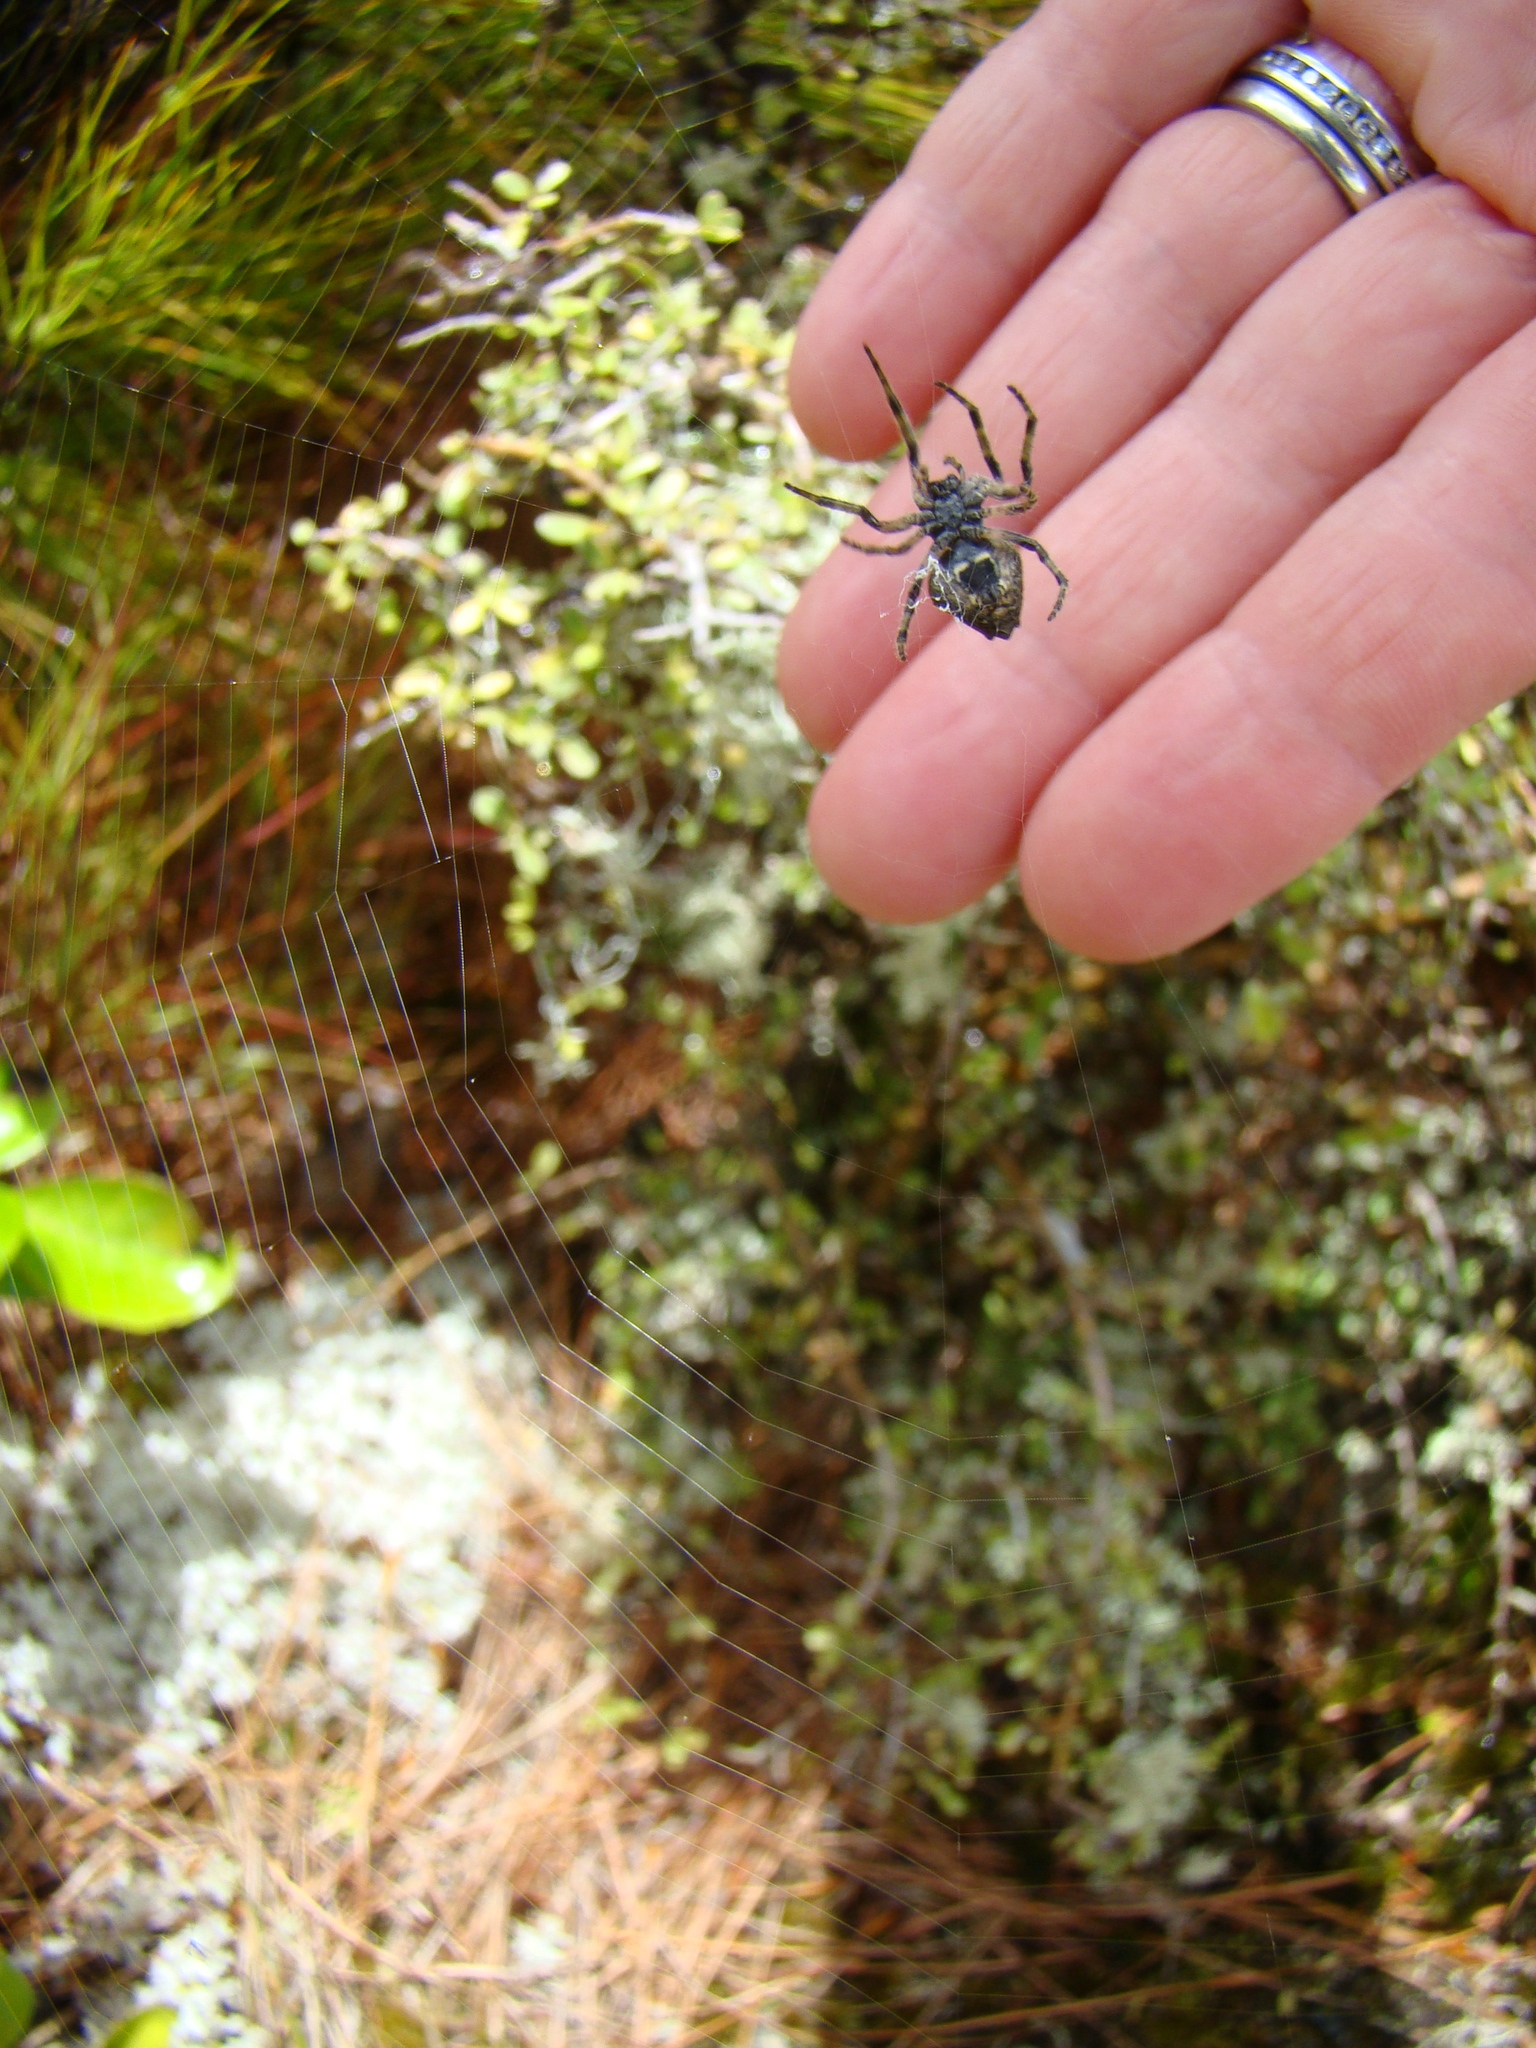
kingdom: Animalia
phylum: Arthropoda
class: Arachnida
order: Araneae
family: Araneidae
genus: Eriophora
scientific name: Eriophora pustulosa
